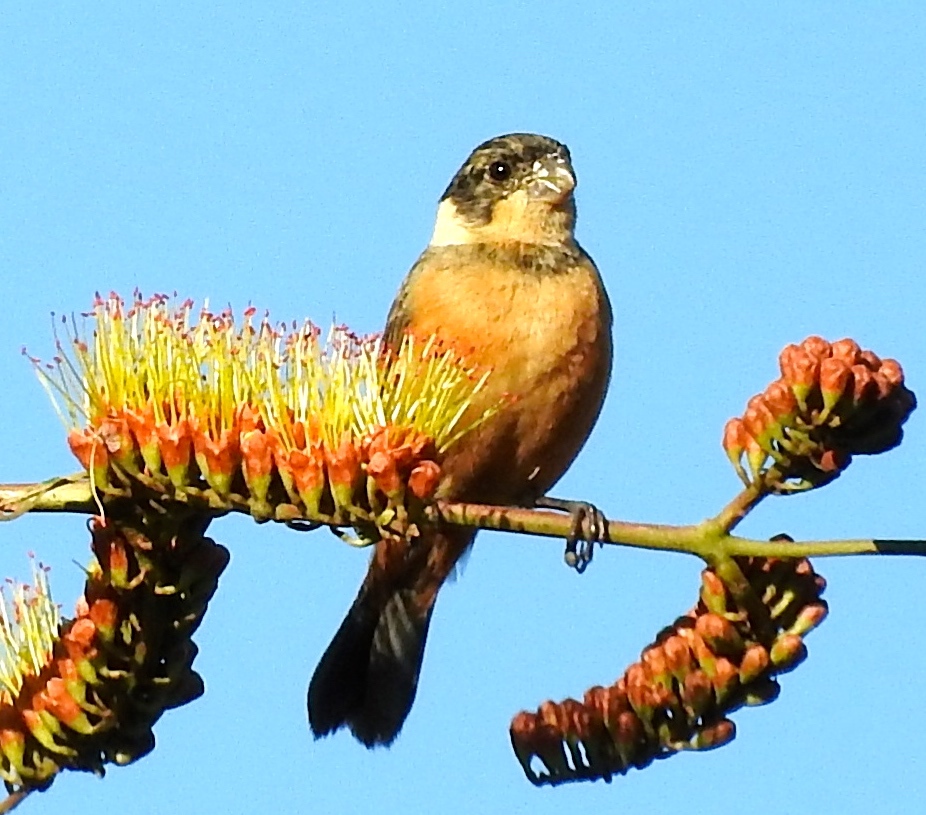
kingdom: Animalia
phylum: Chordata
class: Aves
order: Passeriformes
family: Thraupidae
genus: Sporophila
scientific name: Sporophila torqueola
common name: White-collared seedeater
